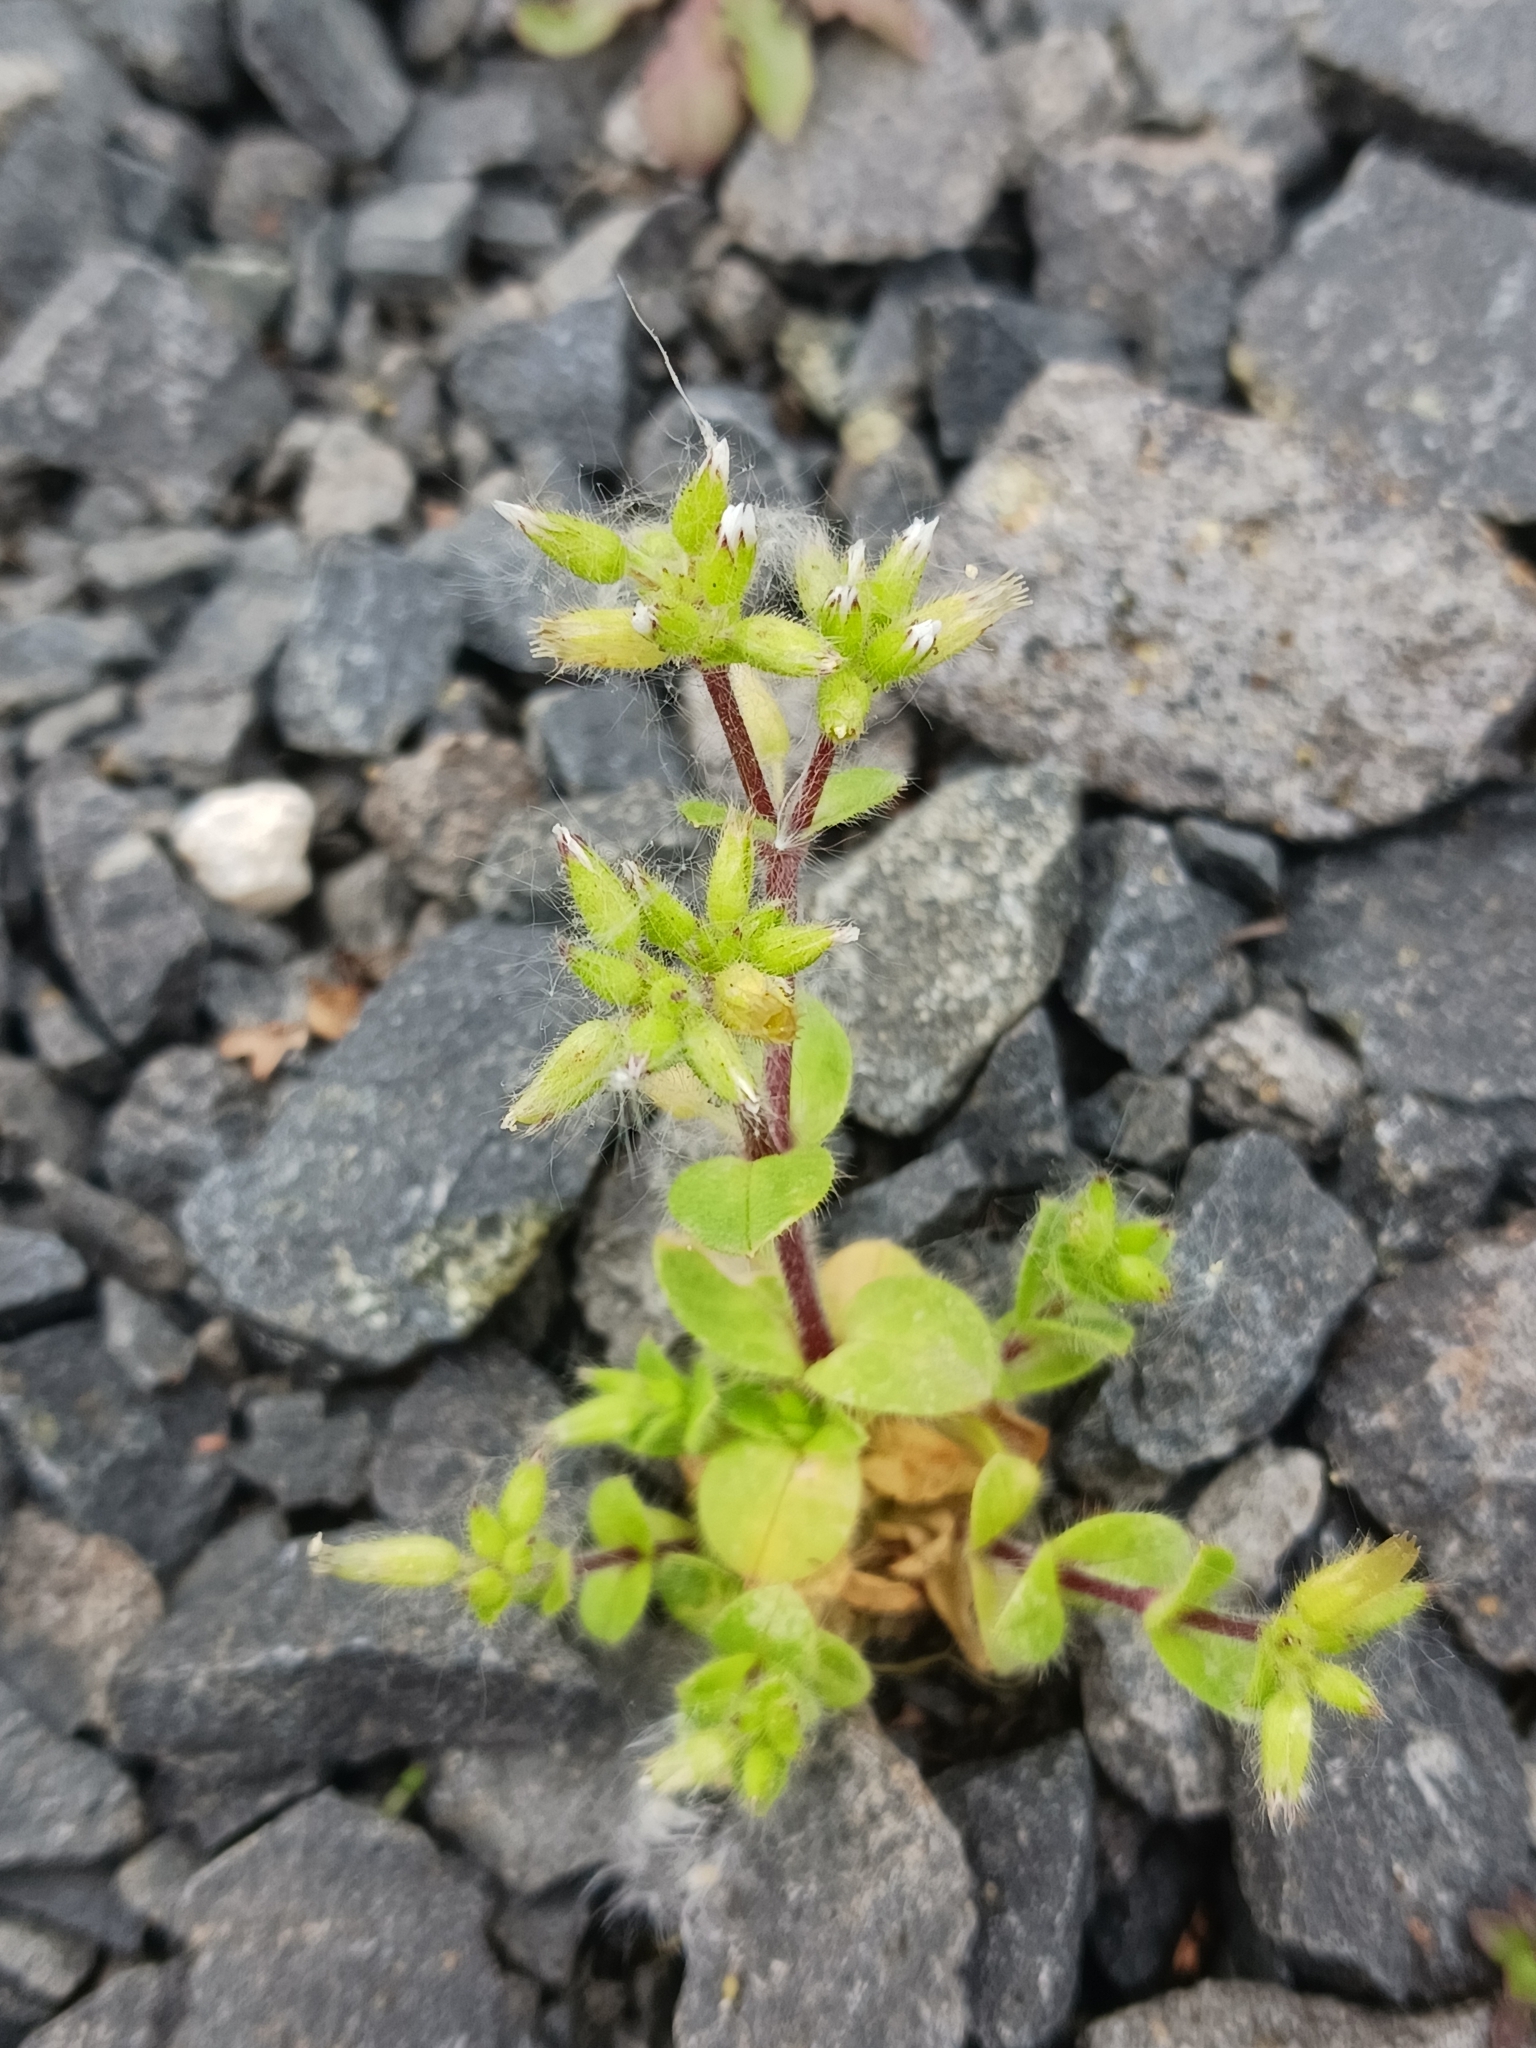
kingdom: Plantae
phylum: Tracheophyta
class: Magnoliopsida
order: Caryophyllales
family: Caryophyllaceae
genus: Cerastium
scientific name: Cerastium glomeratum
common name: Sticky chickweed
